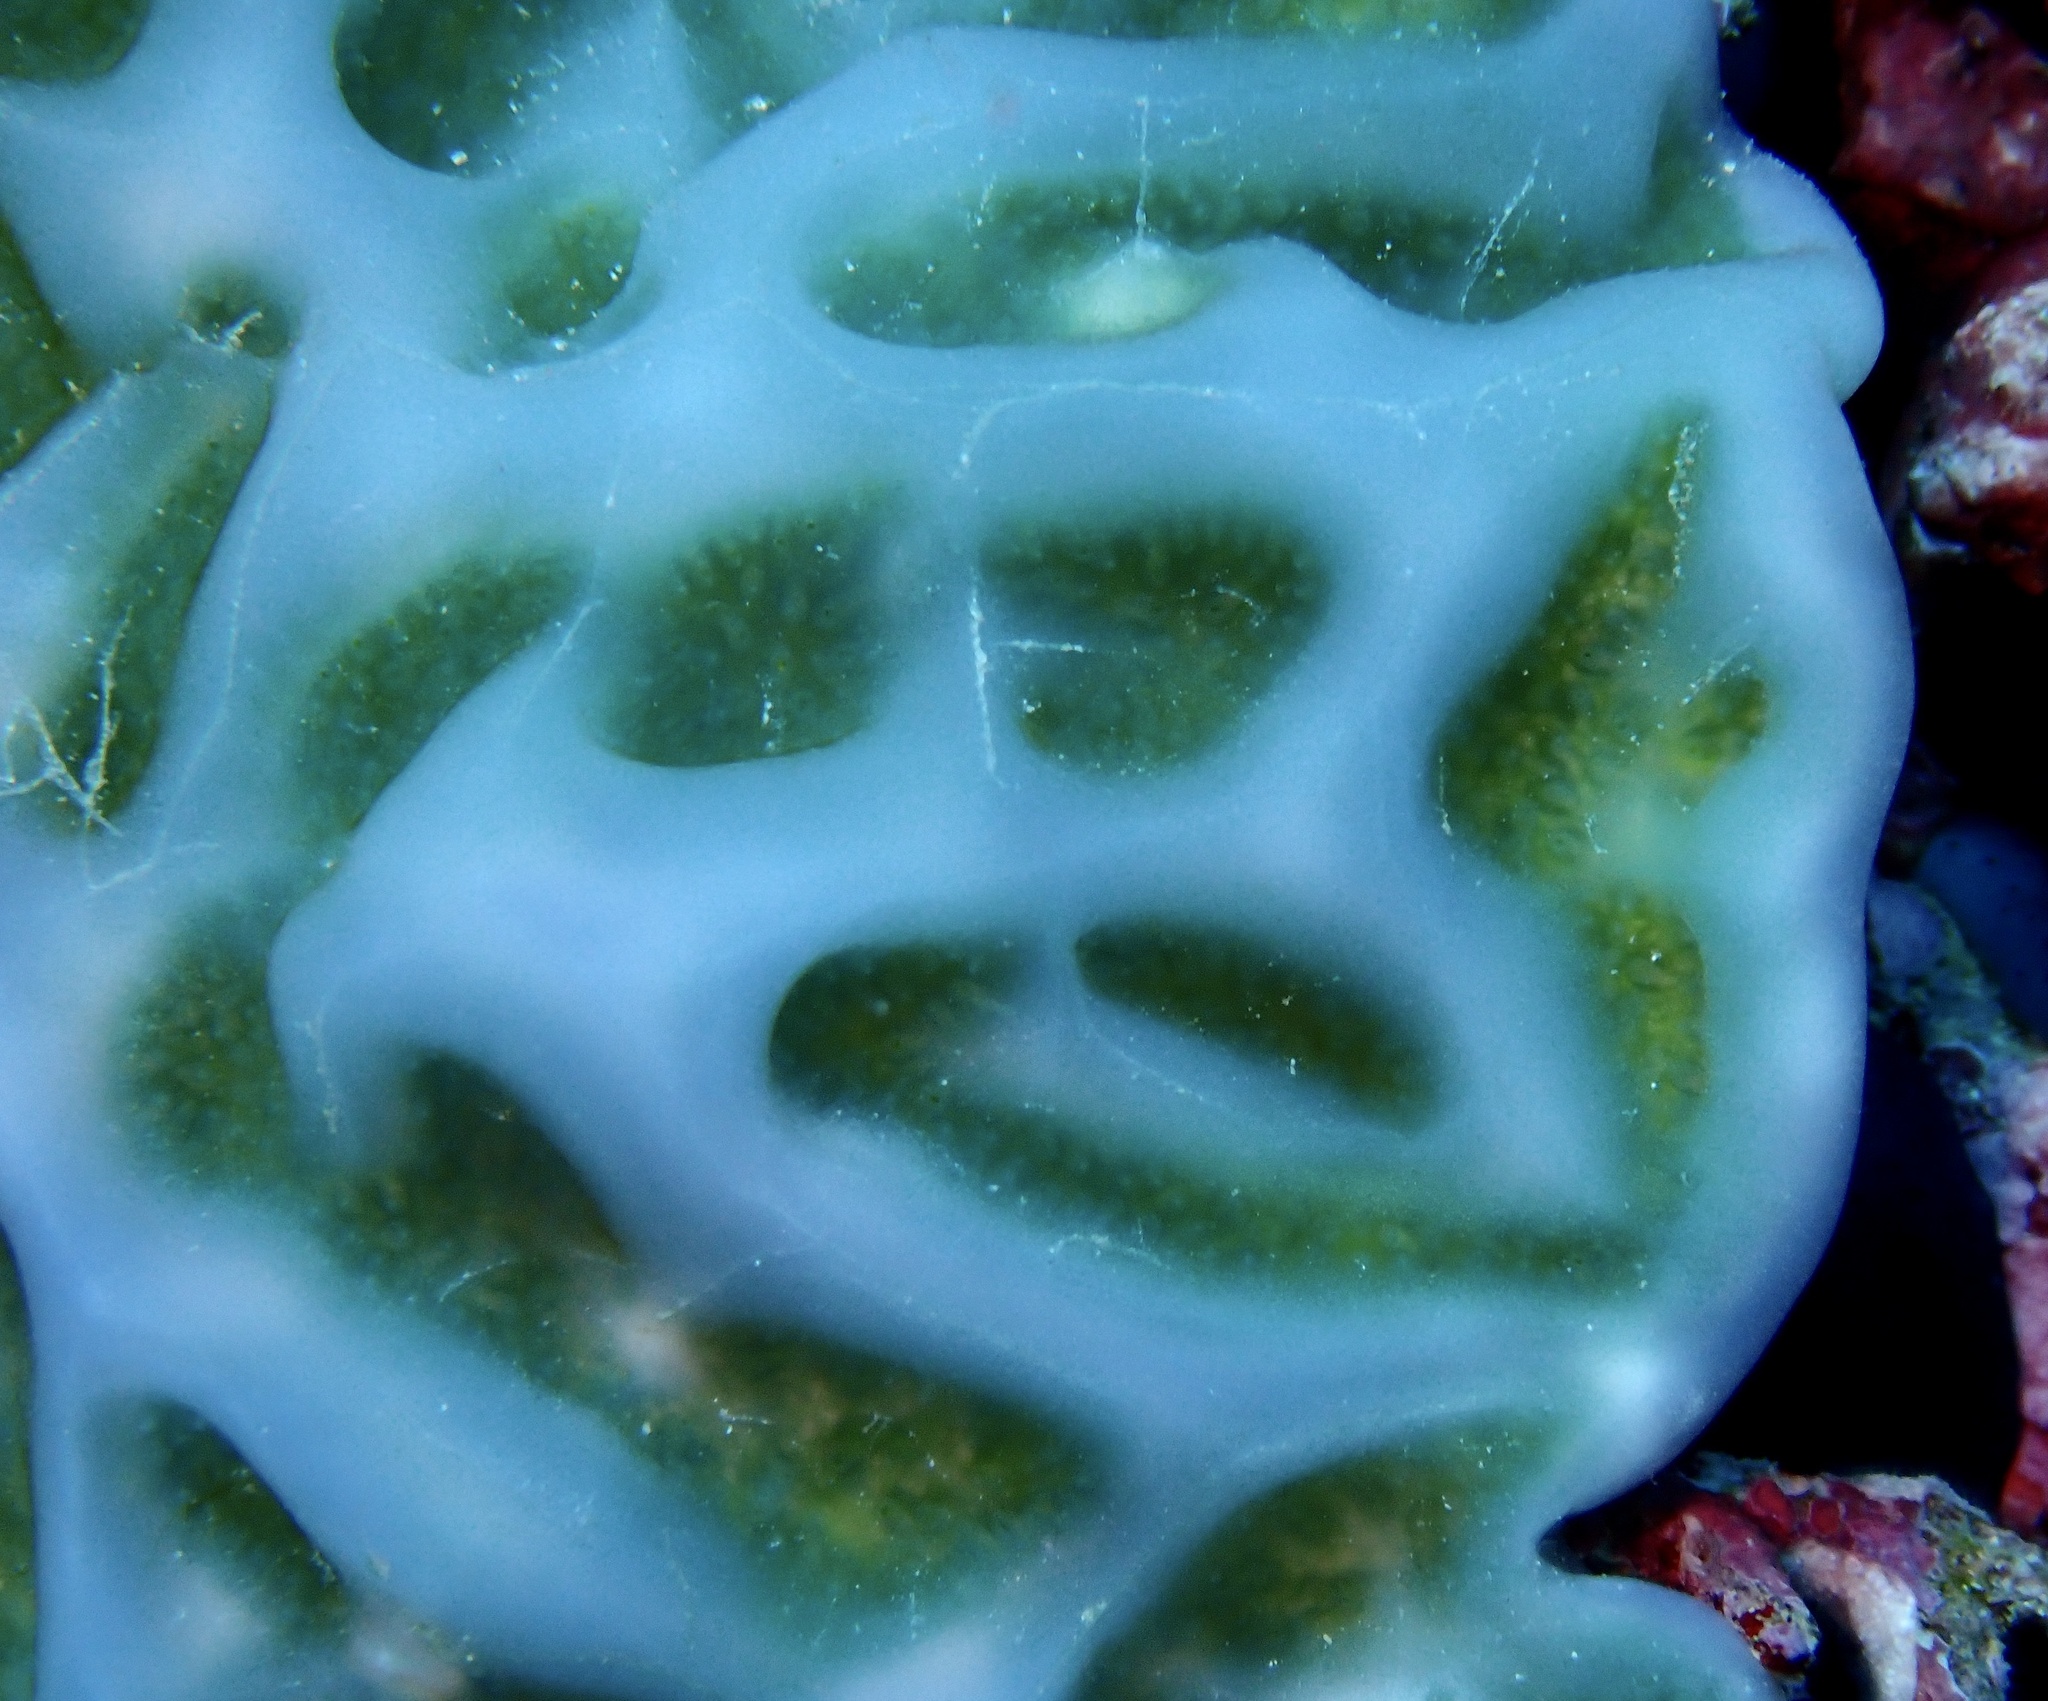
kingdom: Animalia
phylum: Chordata
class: Ascidiacea
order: Aplousobranchia
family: Didemnidae
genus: Lissoclinum
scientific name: Lissoclinum patella
